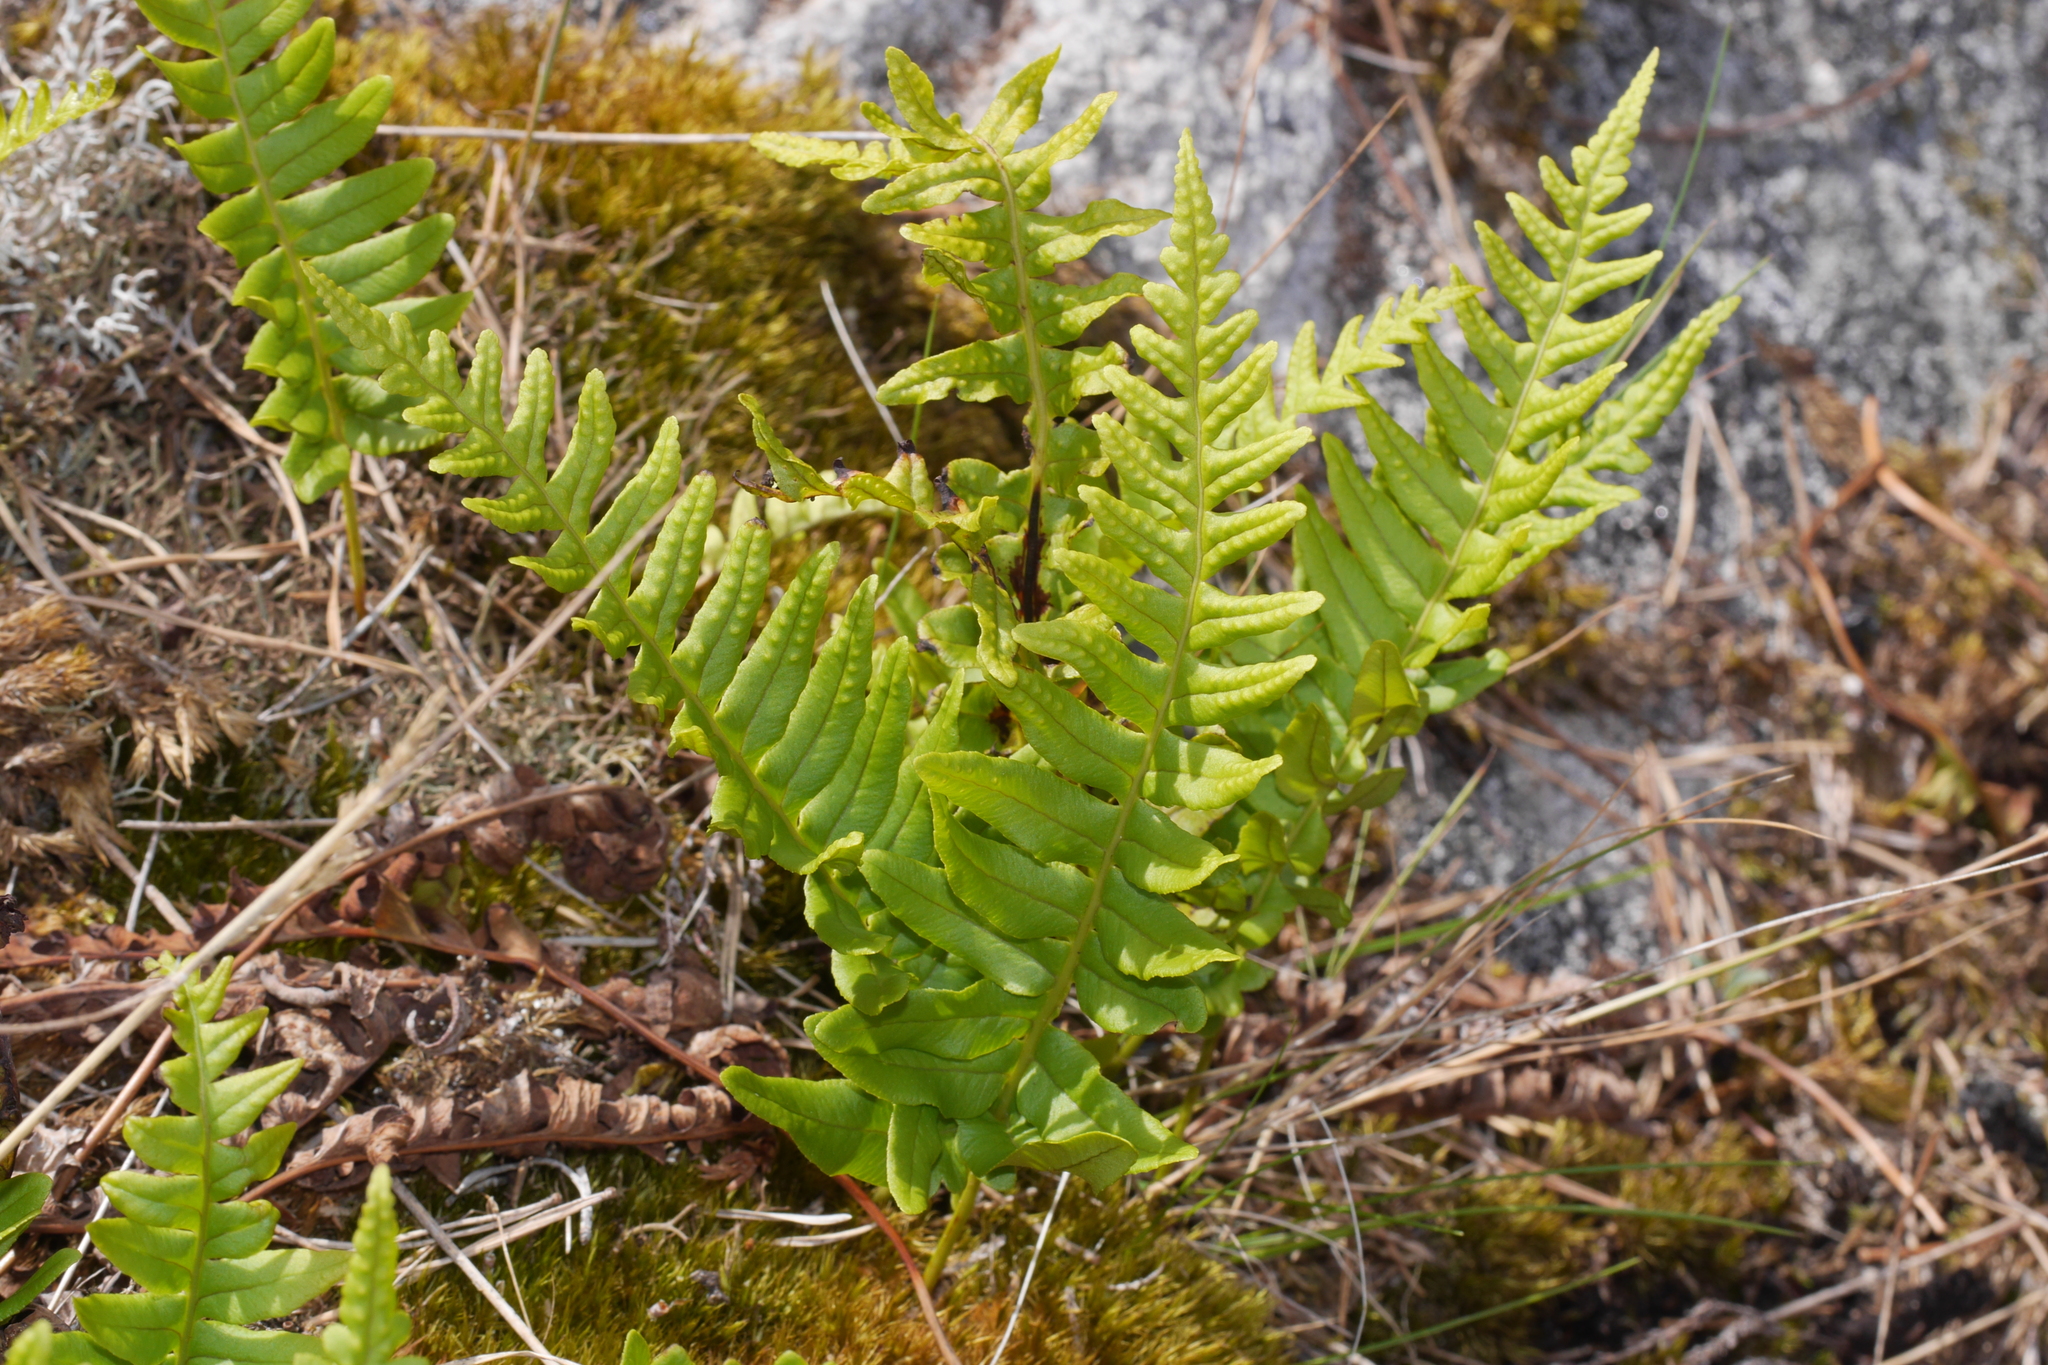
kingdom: Plantae
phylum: Tracheophyta
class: Polypodiopsida
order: Polypodiales
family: Polypodiaceae
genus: Polypodium
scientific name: Polypodium vulgare
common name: Common polypody
